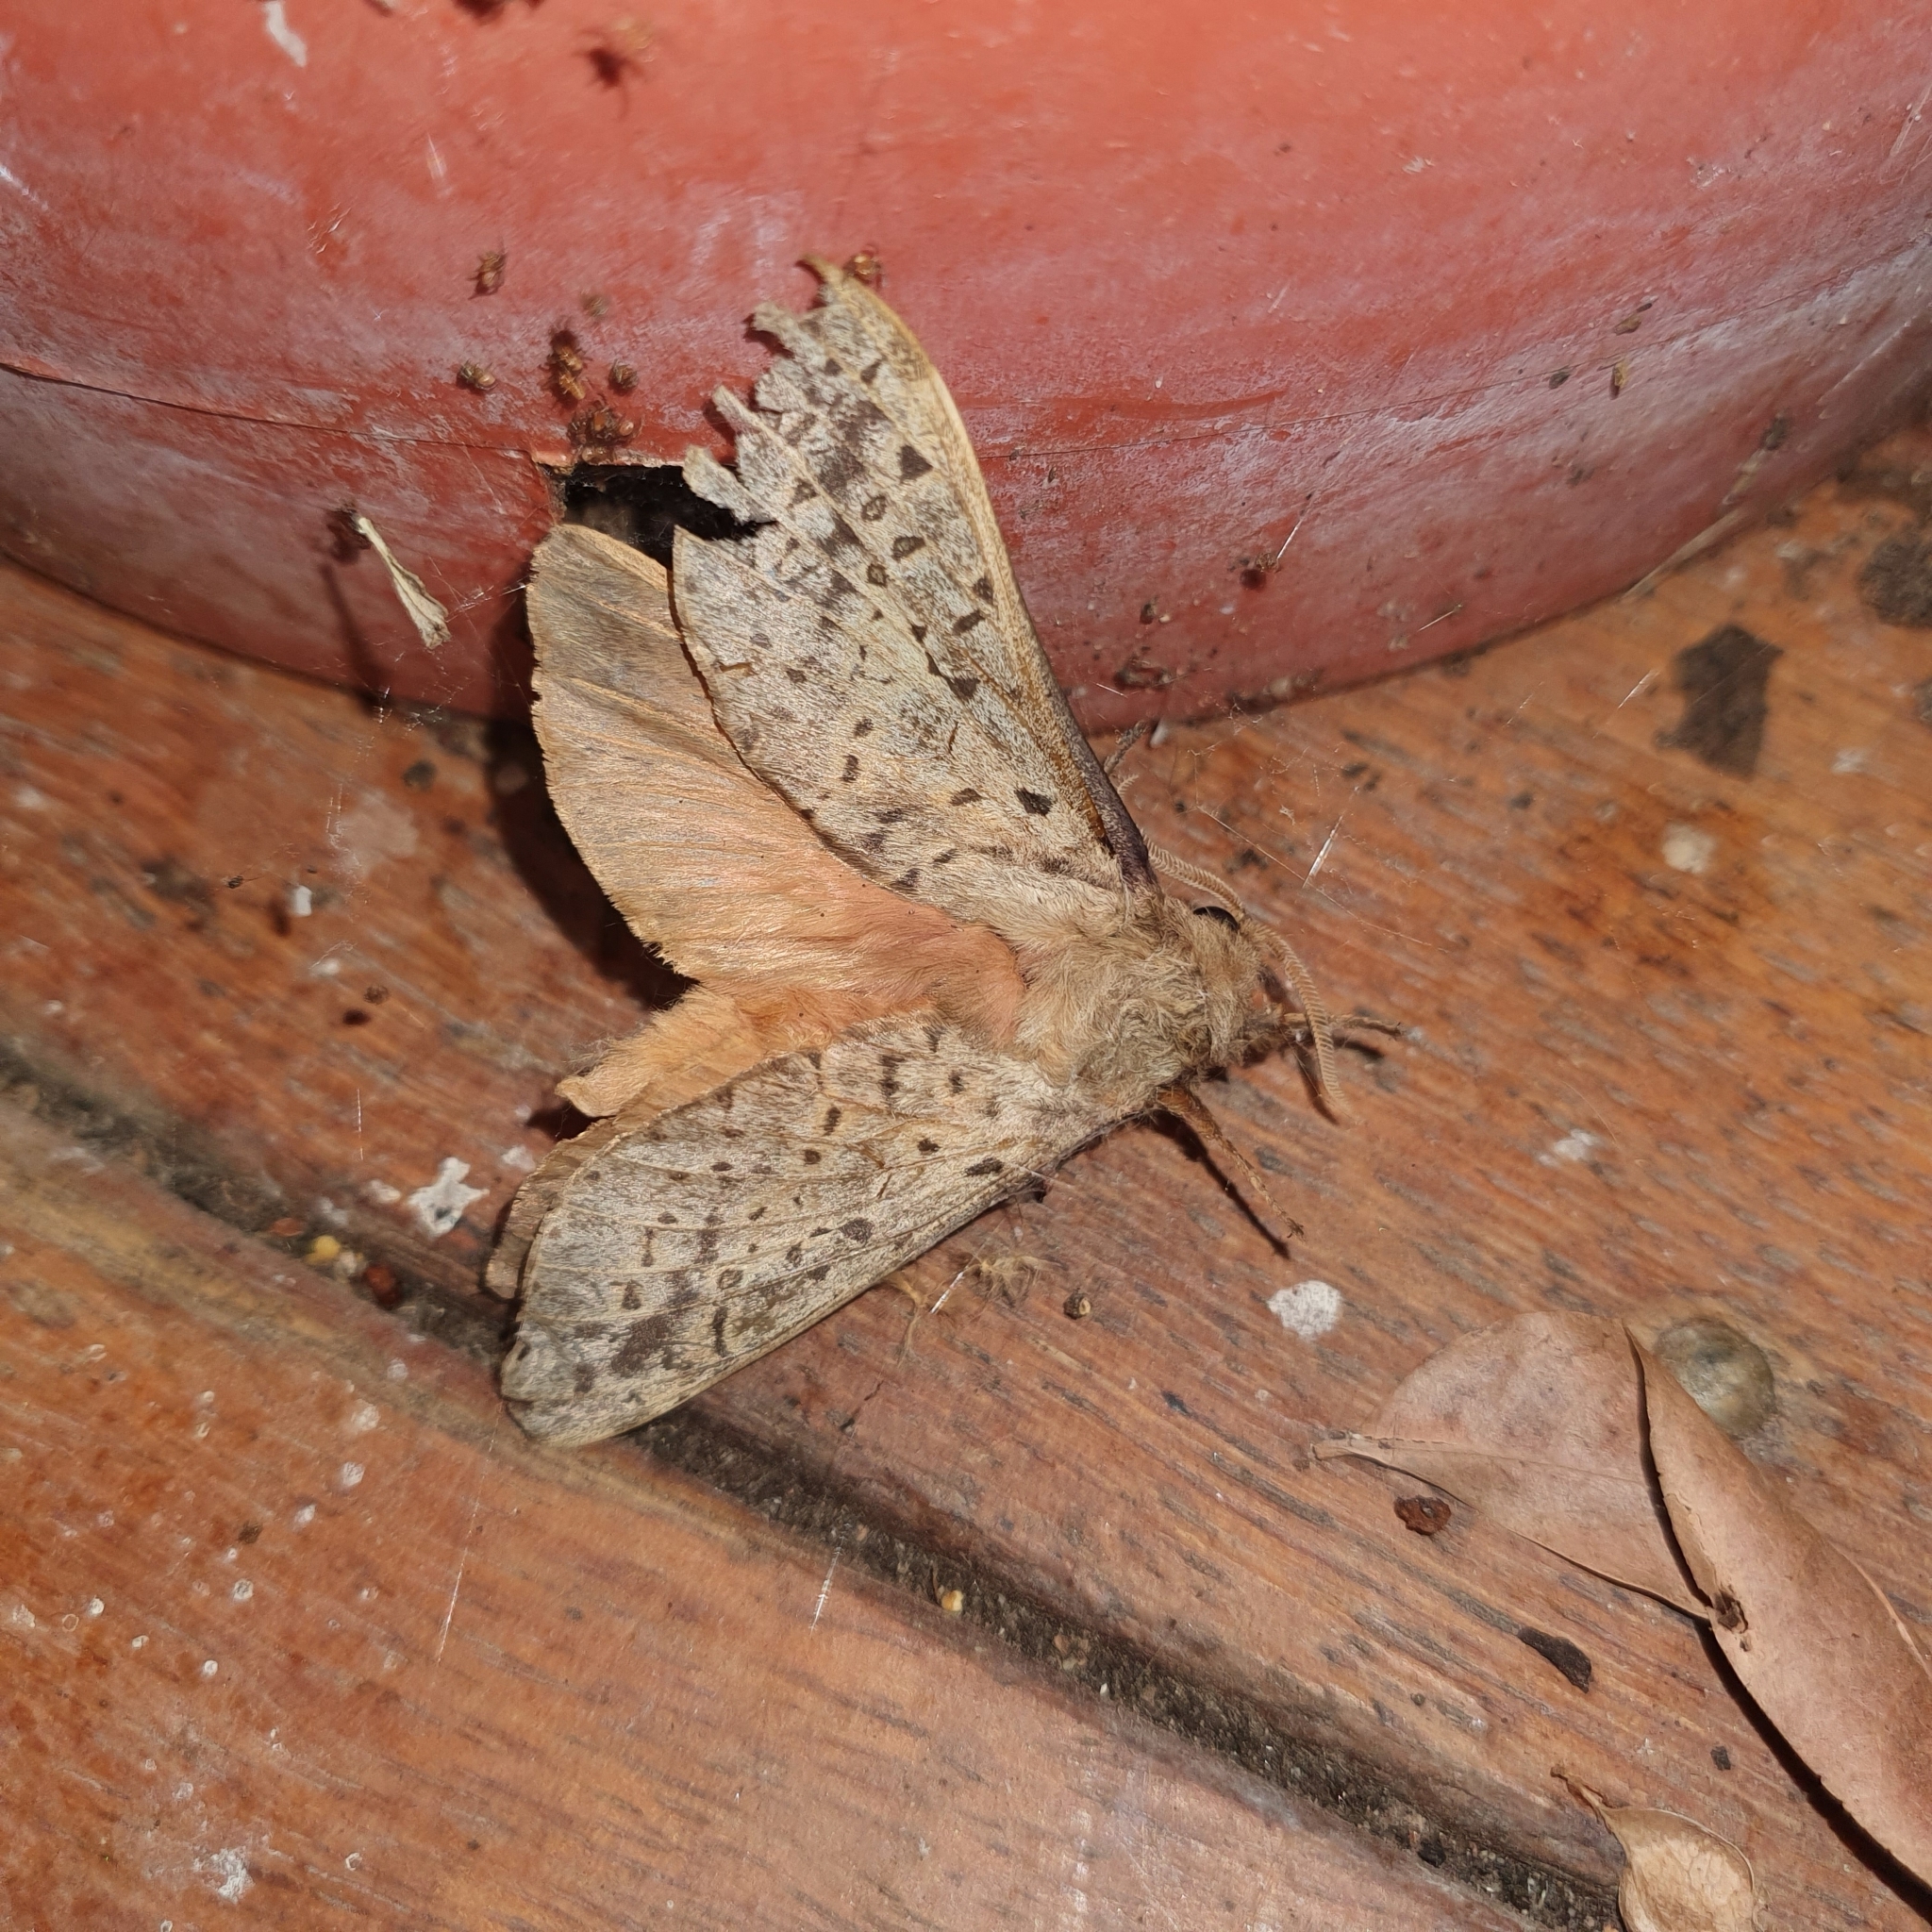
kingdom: Animalia
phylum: Arthropoda
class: Insecta
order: Lepidoptera
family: Hepialidae
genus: Oxycanus
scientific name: Oxycanus silvanus
